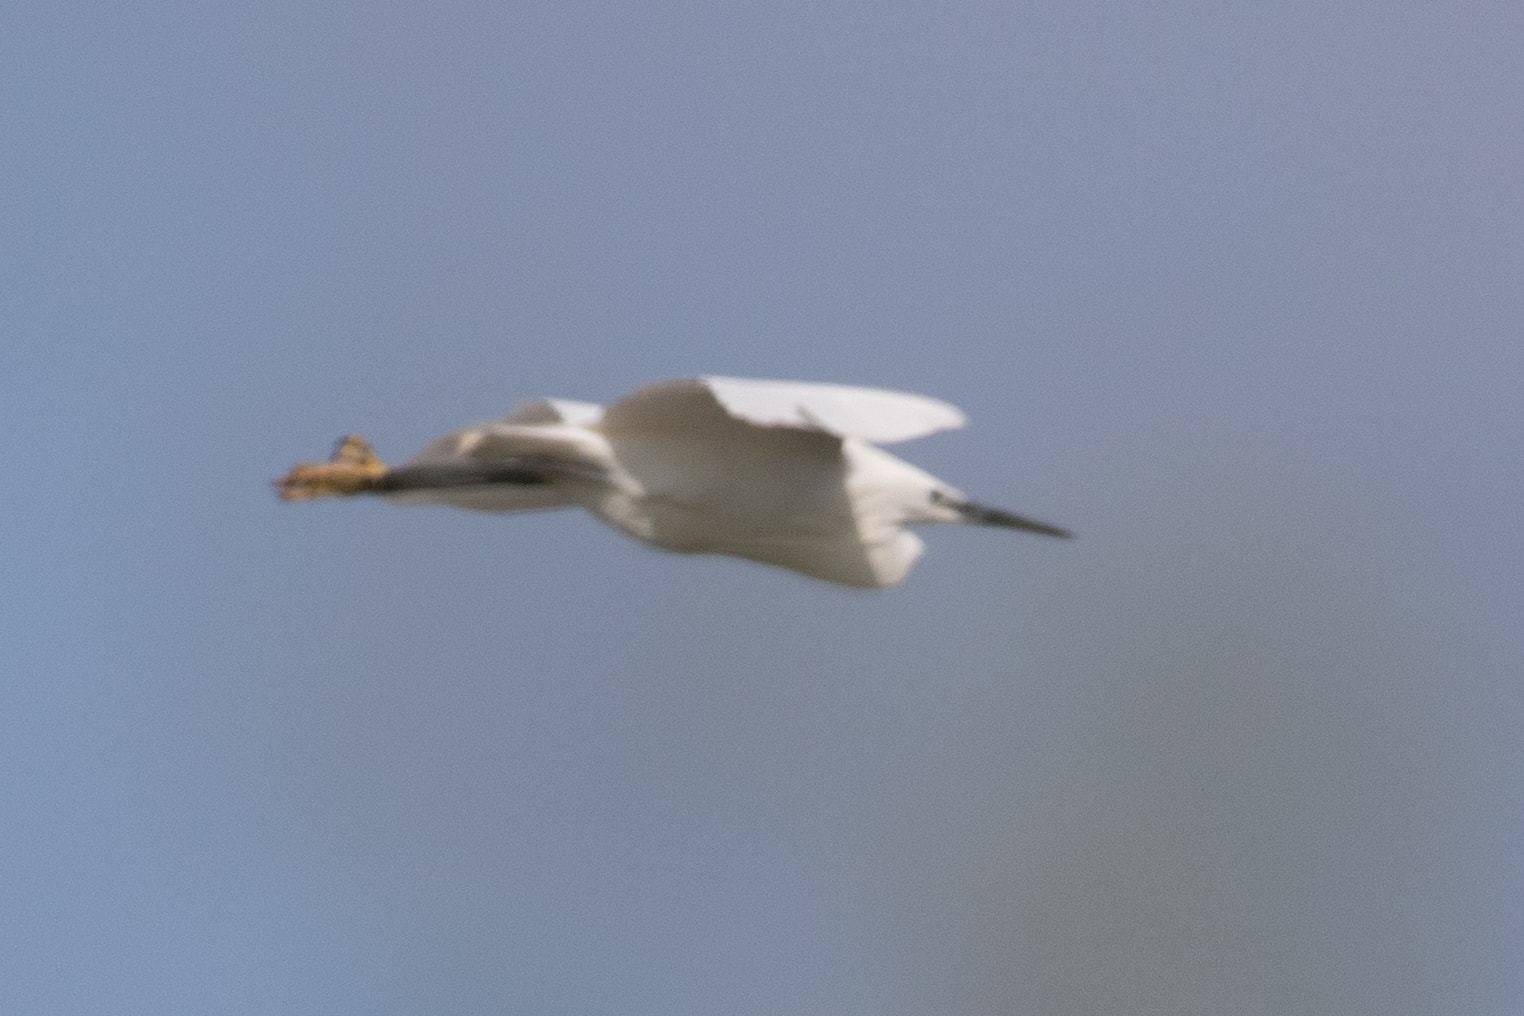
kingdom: Animalia
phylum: Chordata
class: Aves
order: Pelecaniformes
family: Ardeidae
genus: Egretta
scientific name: Egretta garzetta
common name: Little egret
